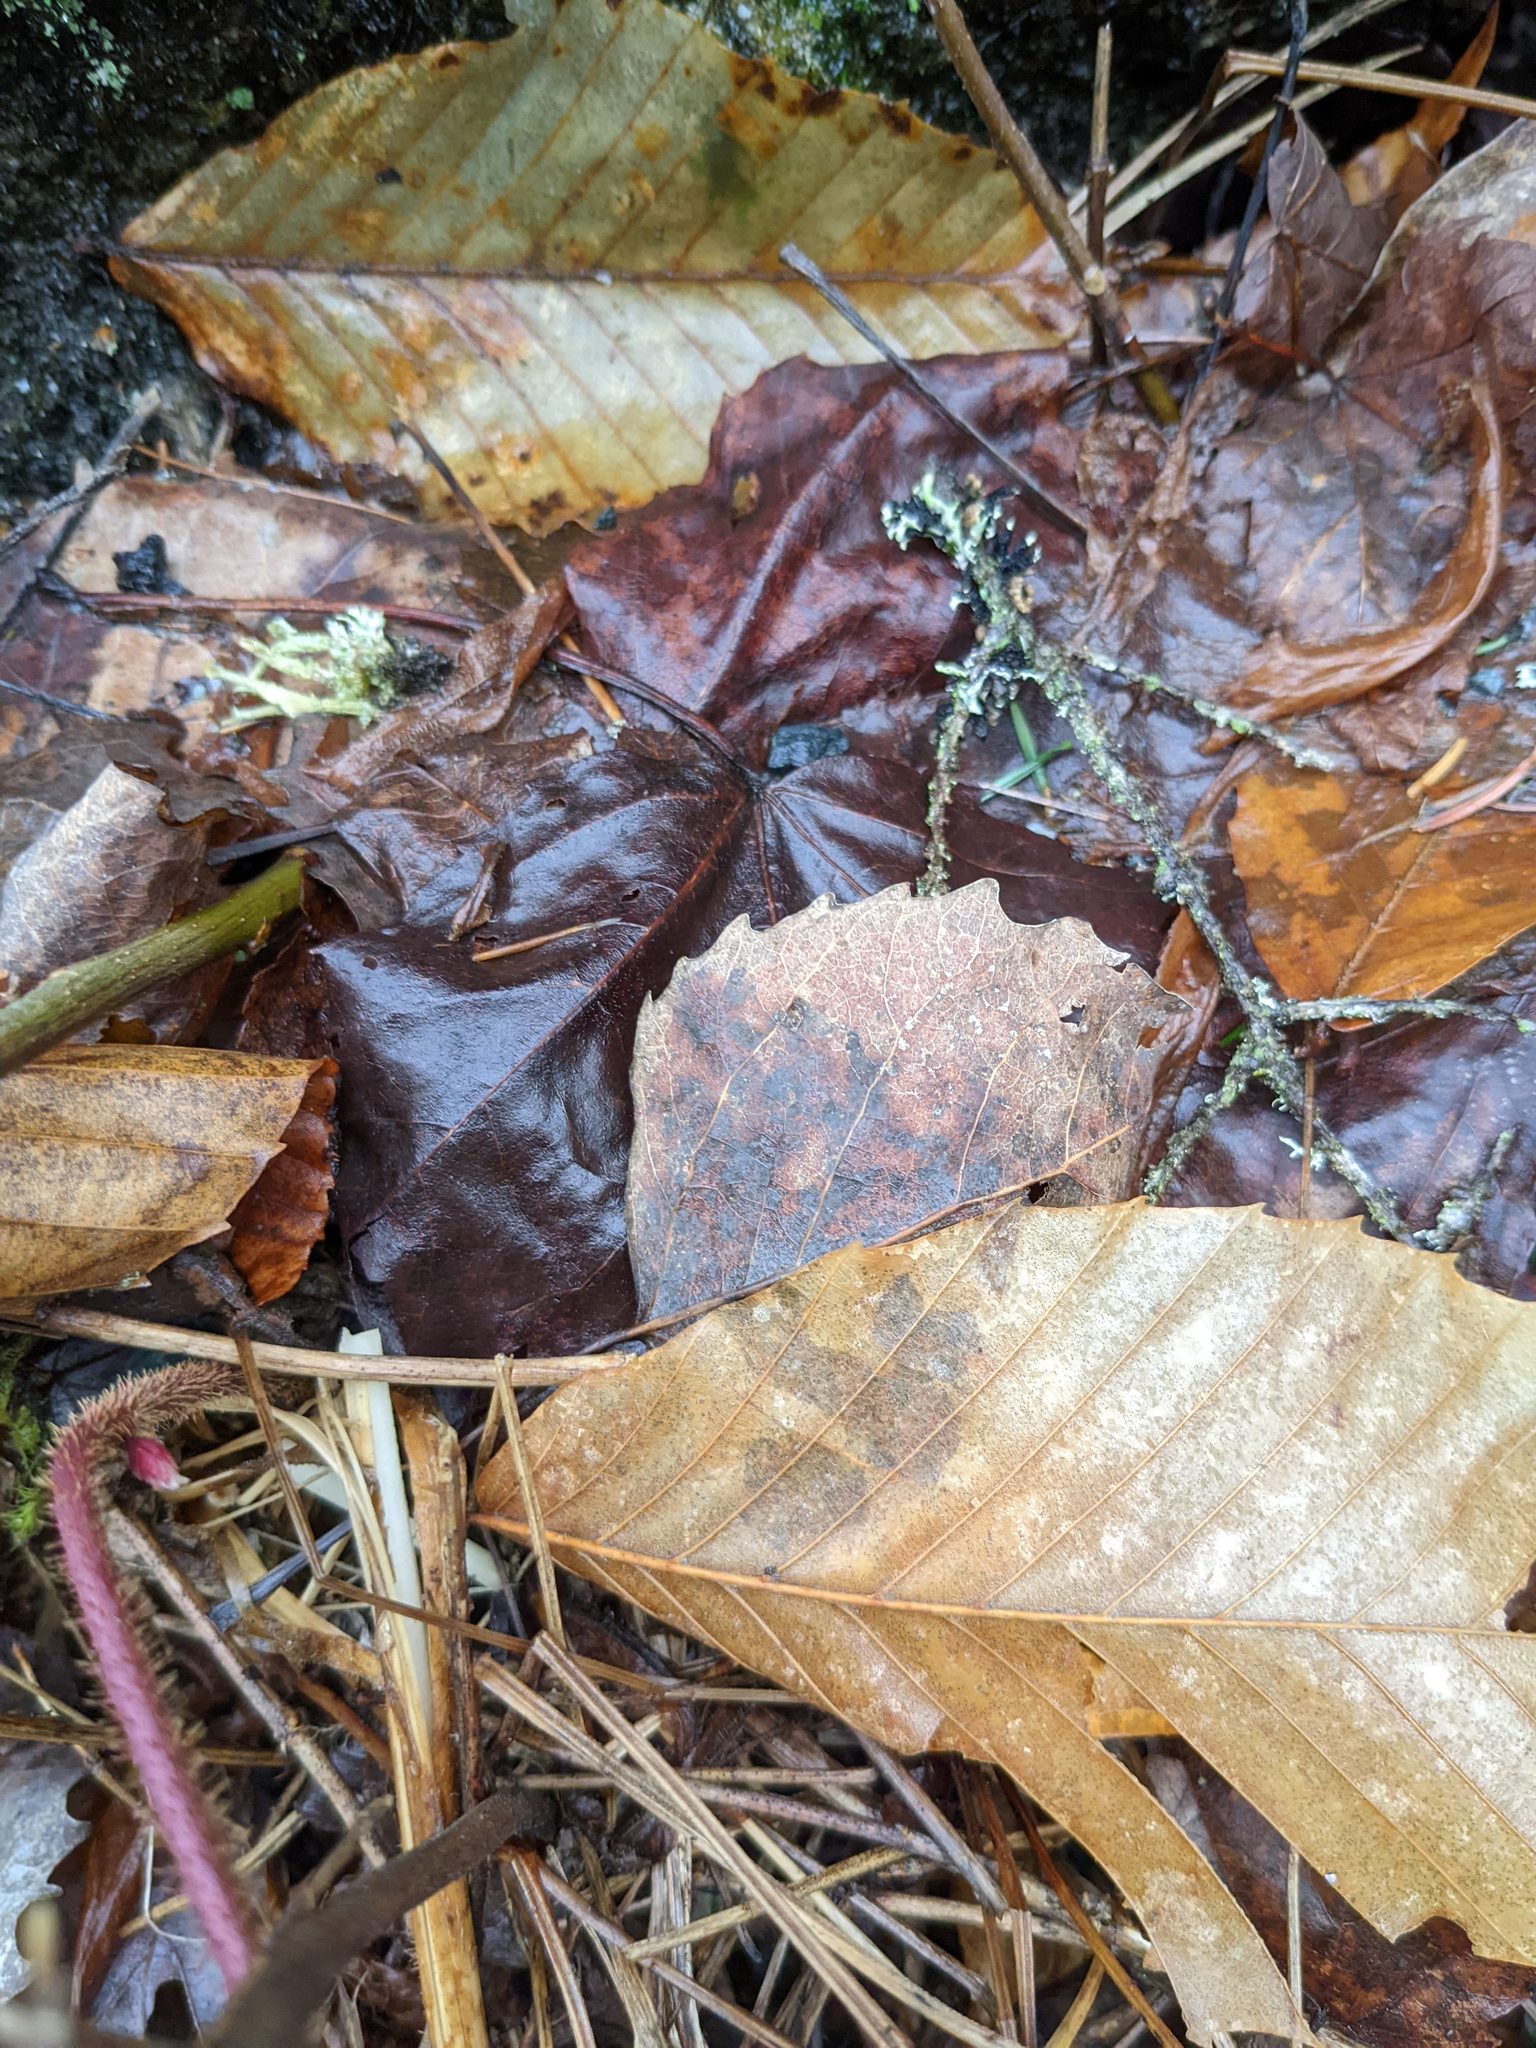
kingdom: Plantae
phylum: Tracheophyta
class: Magnoliopsida
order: Malpighiales
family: Salicaceae
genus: Populus
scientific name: Populus grandidentata
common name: Bigtooth aspen
